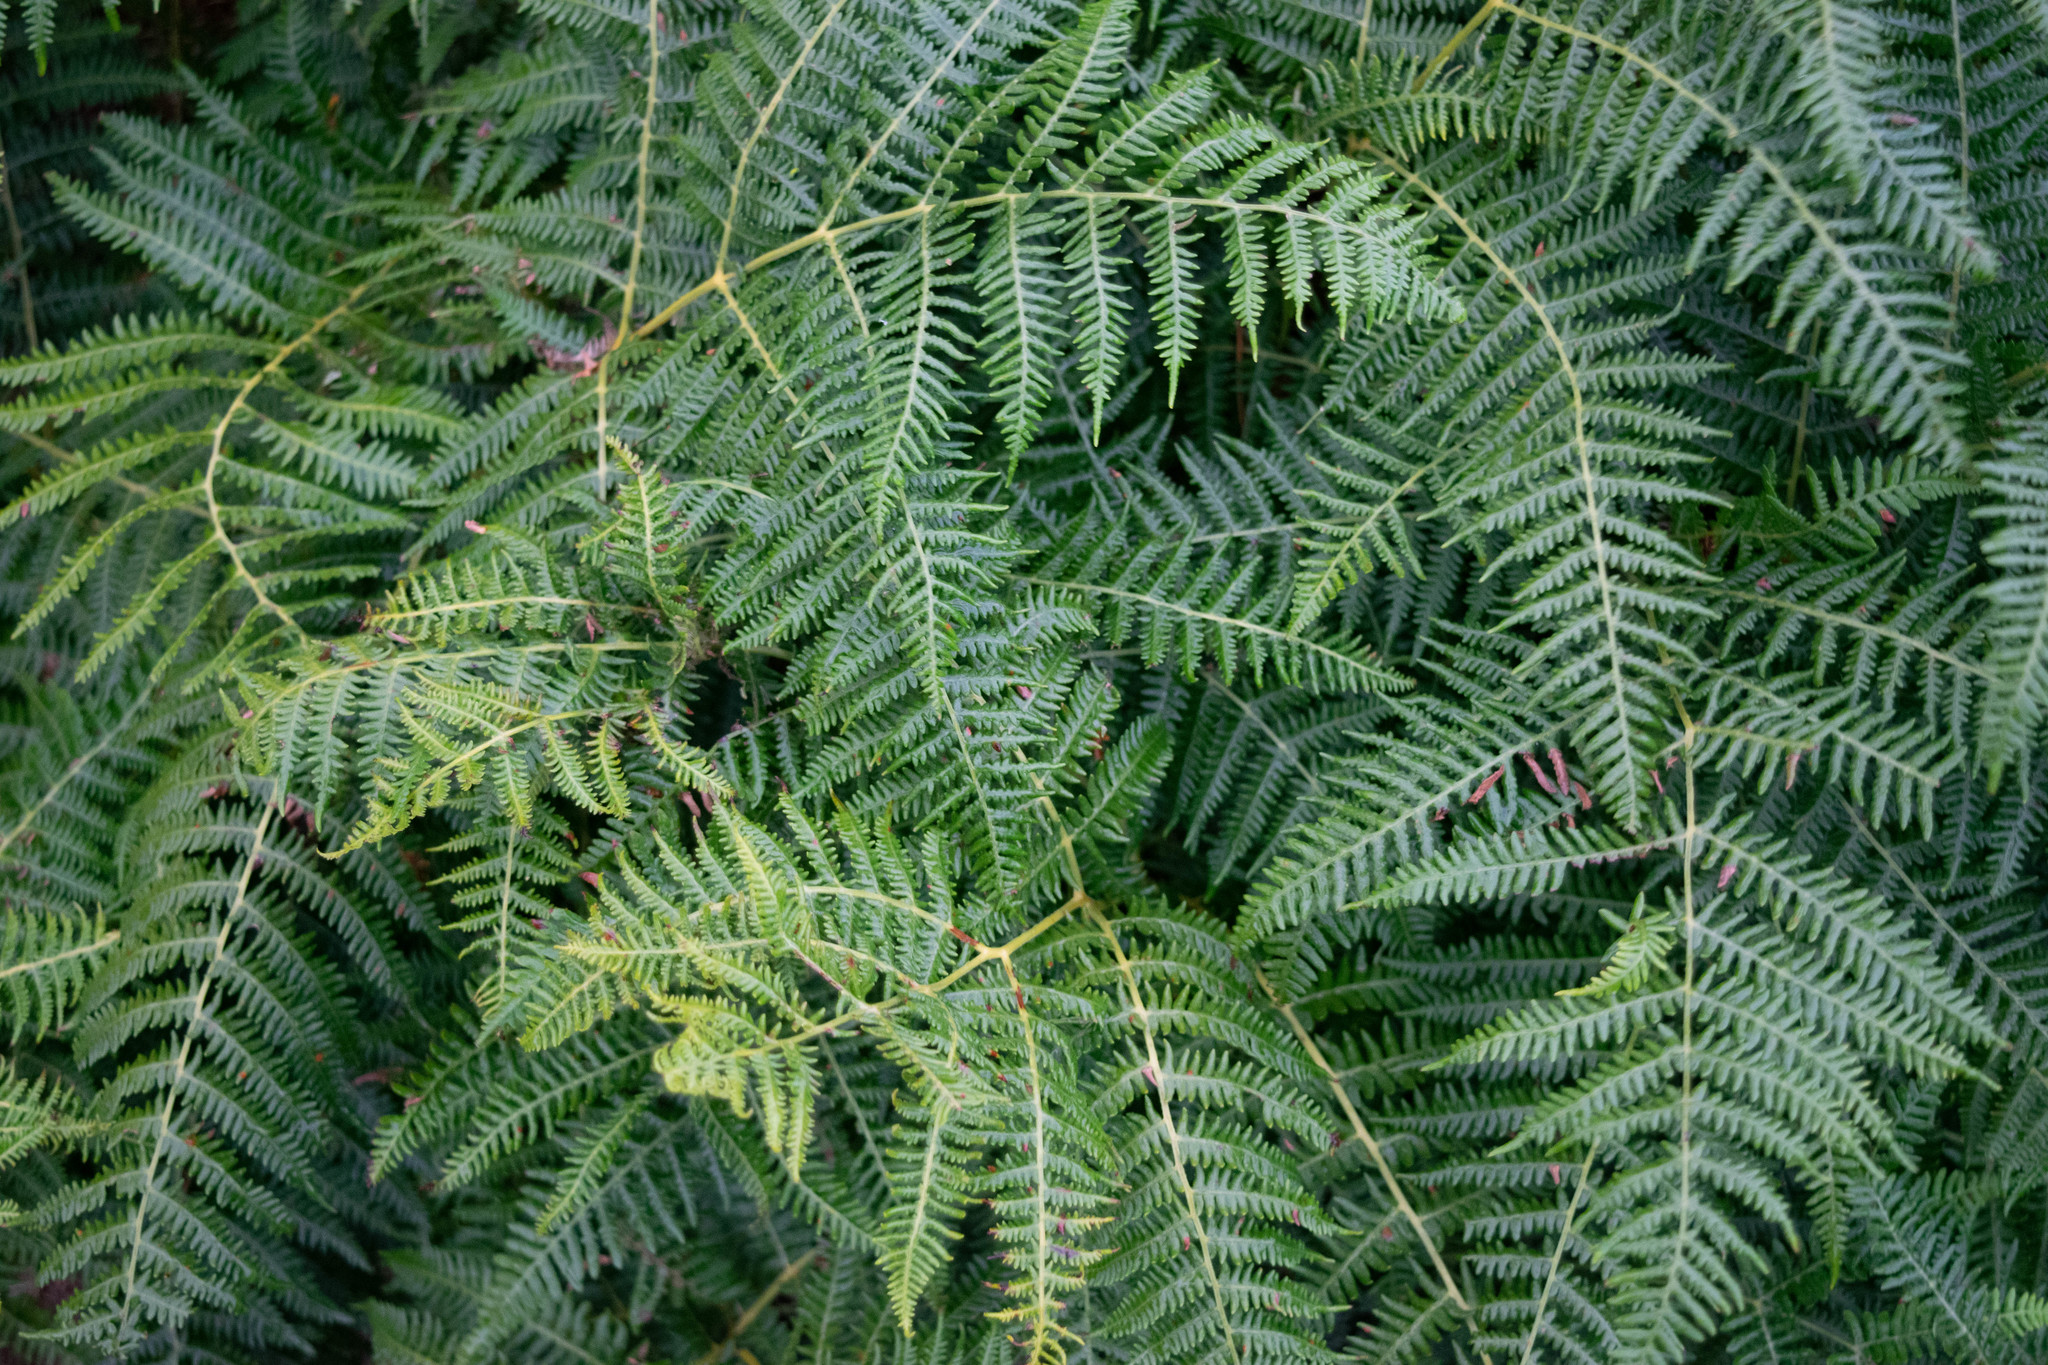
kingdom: Plantae
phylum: Tracheophyta
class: Polypodiopsida
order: Polypodiales
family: Dennstaedtiaceae
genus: Pteridium
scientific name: Pteridium aquilinum
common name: Bracken
